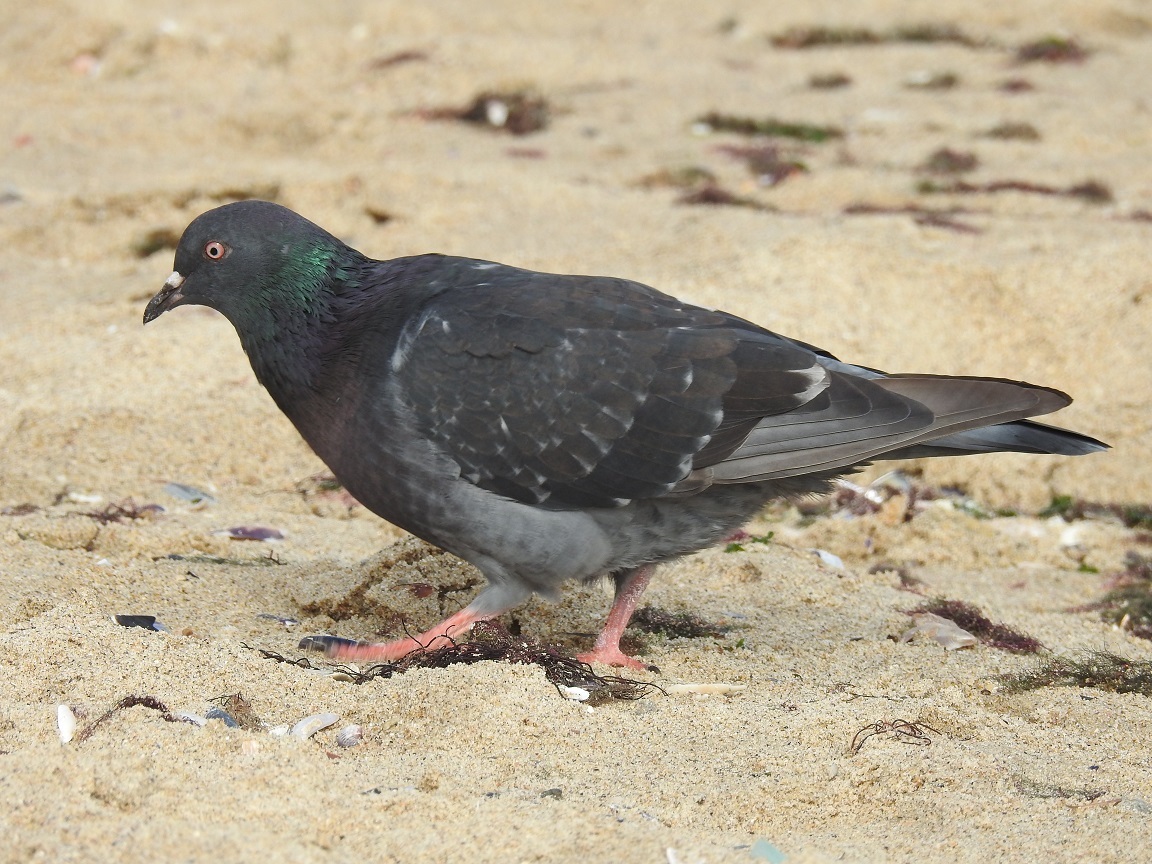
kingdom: Animalia
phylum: Chordata
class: Aves
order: Columbiformes
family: Columbidae
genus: Columba
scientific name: Columba livia
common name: Rock pigeon
